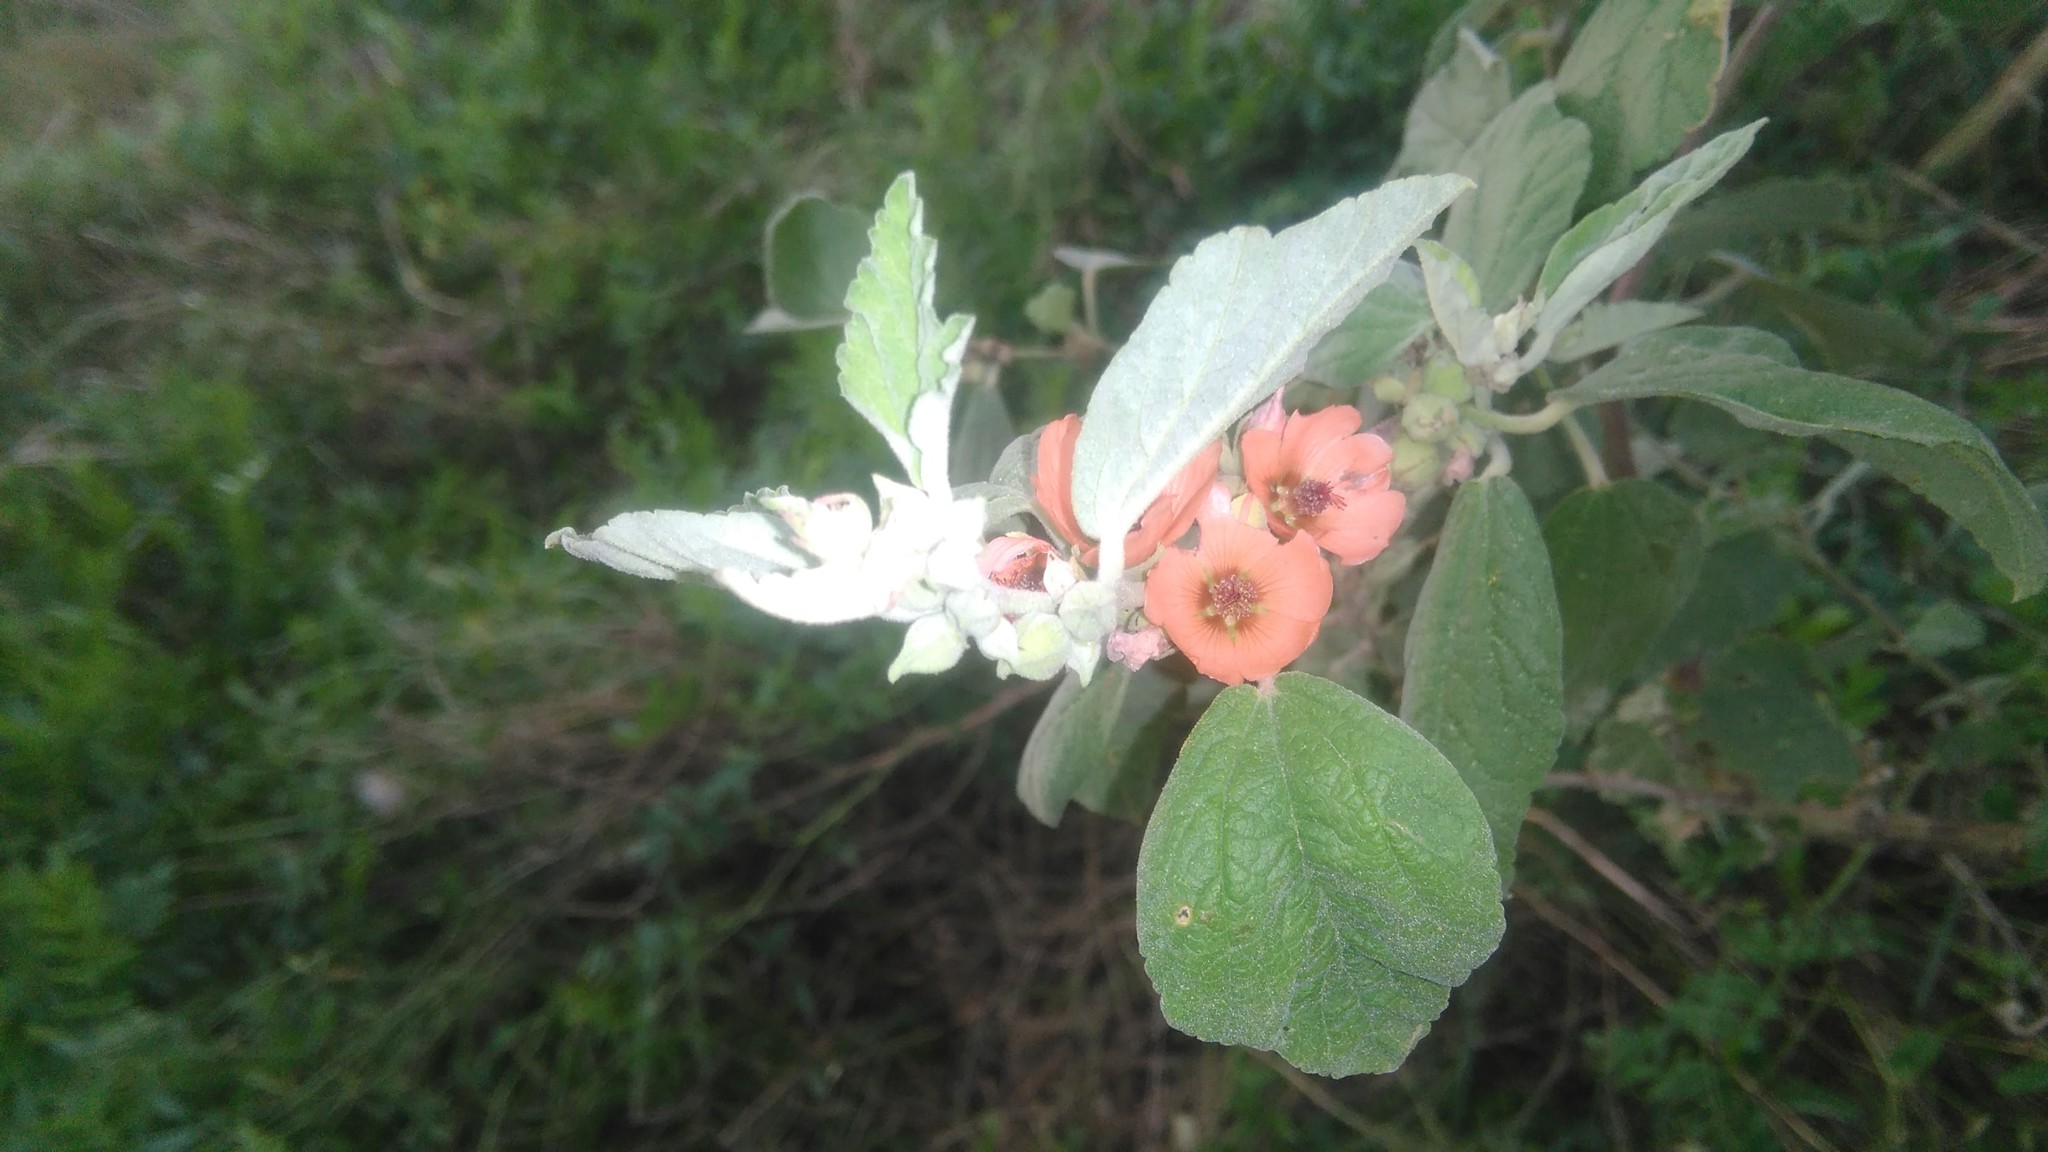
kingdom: Plantae
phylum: Tracheophyta
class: Magnoliopsida
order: Malvales
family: Malvaceae
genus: Sphaeralcea
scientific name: Sphaeralcea bonariensis
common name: Latin globemallow
